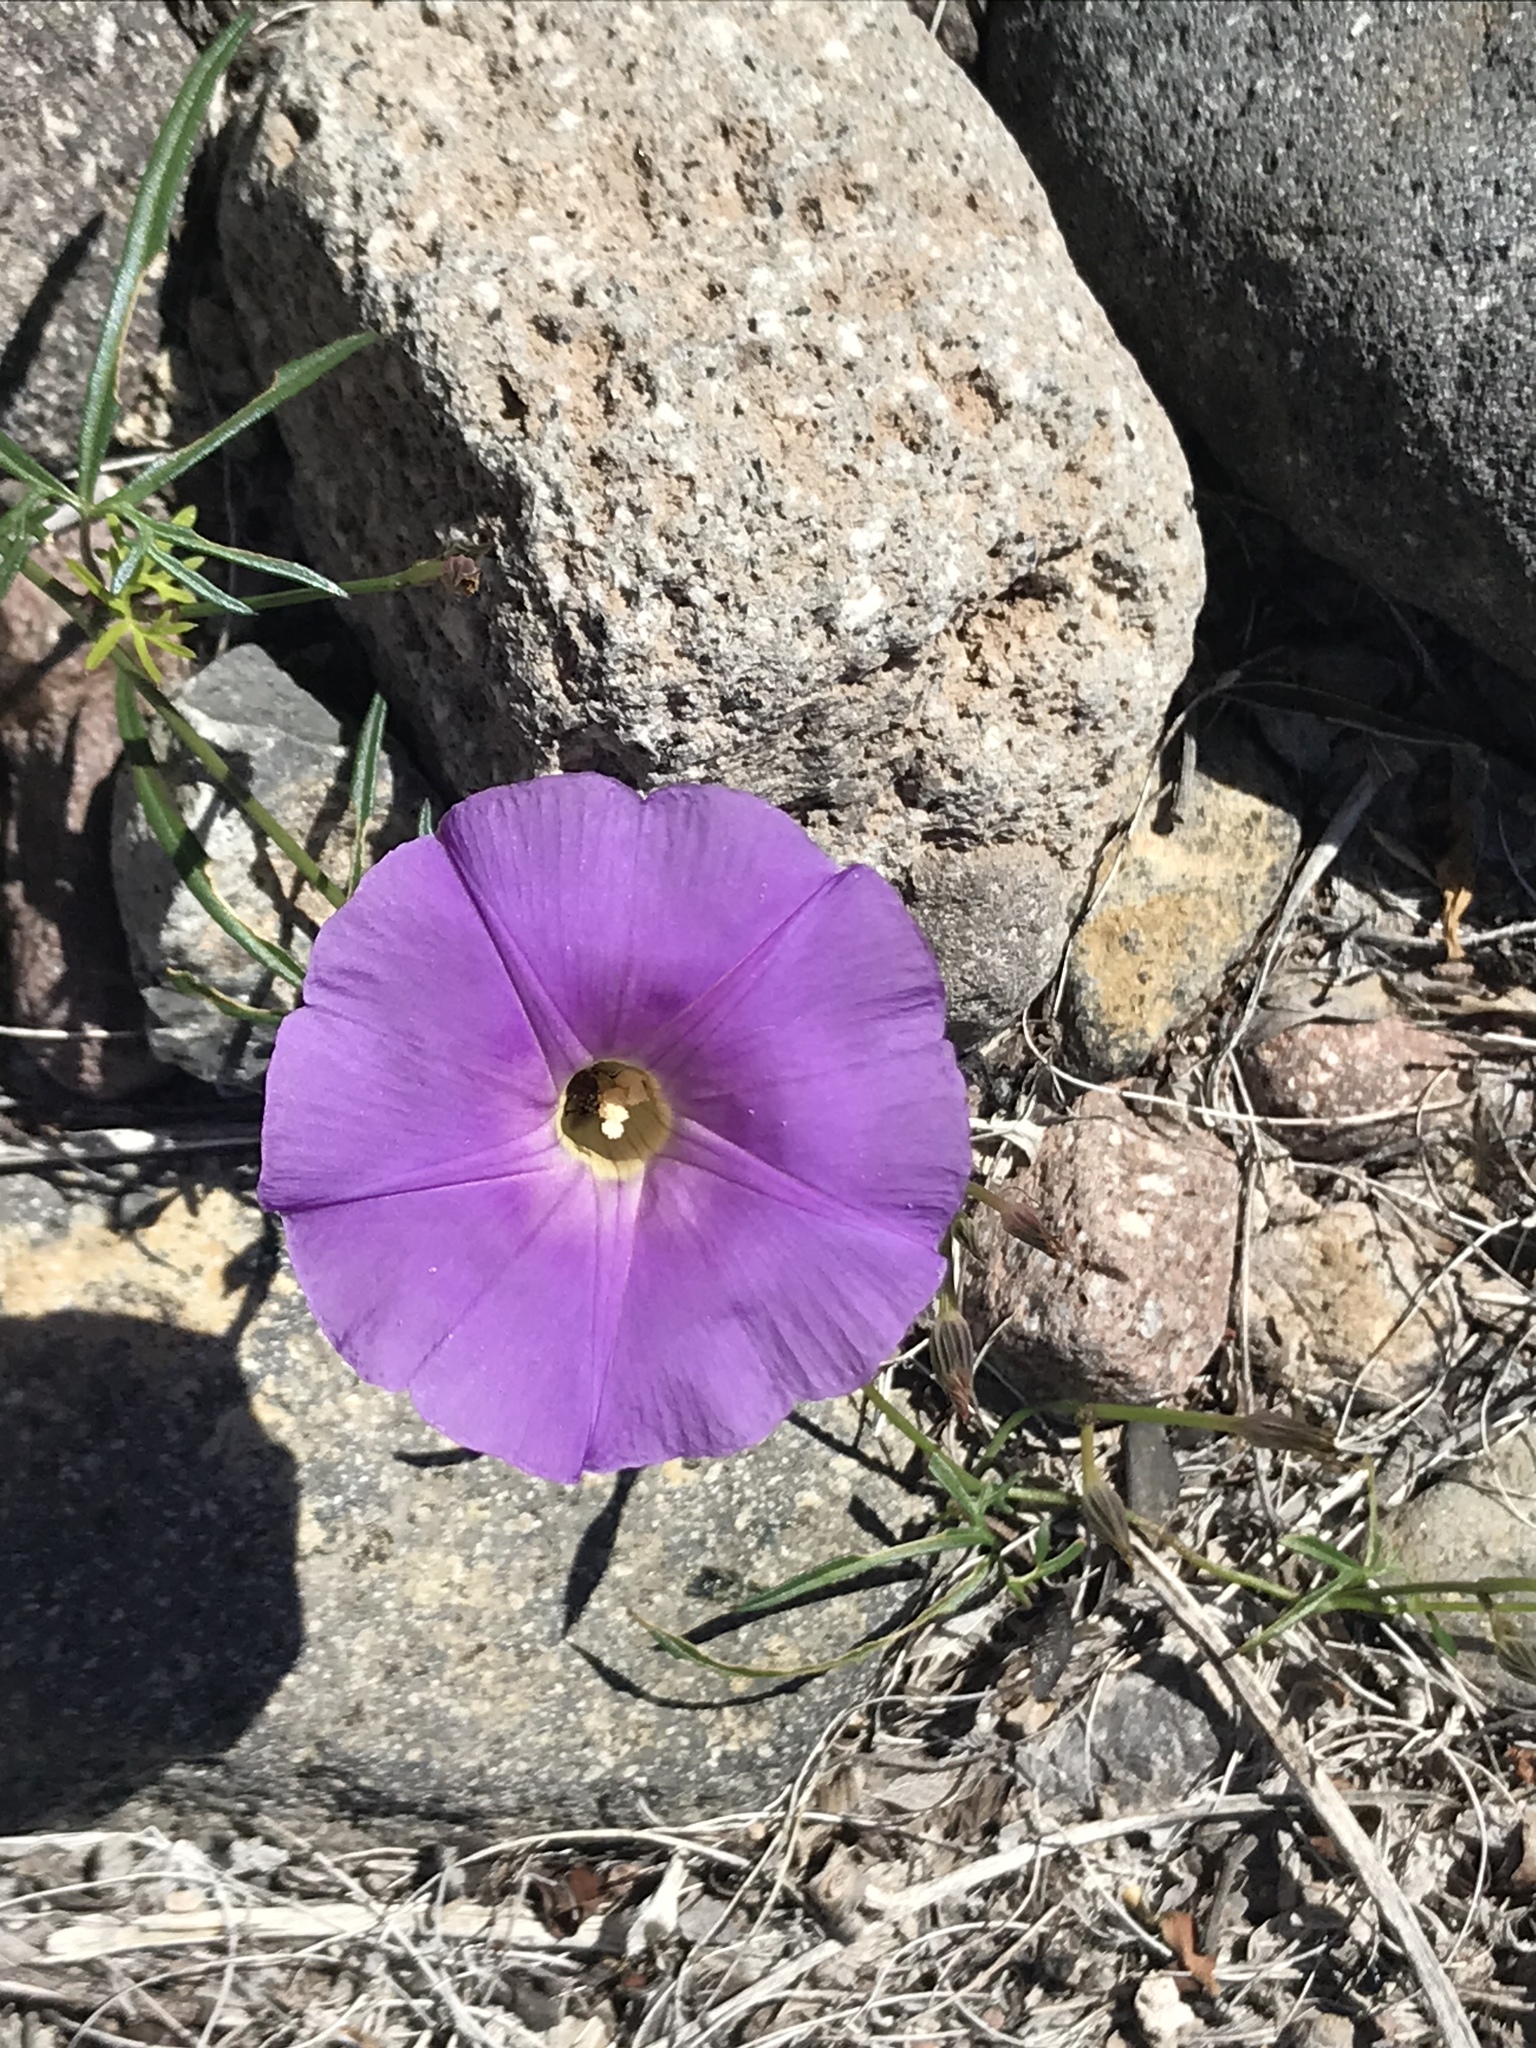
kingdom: Plantae
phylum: Tracheophyta
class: Magnoliopsida
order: Solanales
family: Convolvulaceae
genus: Ipomoea
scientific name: Ipomoea ternifolia
